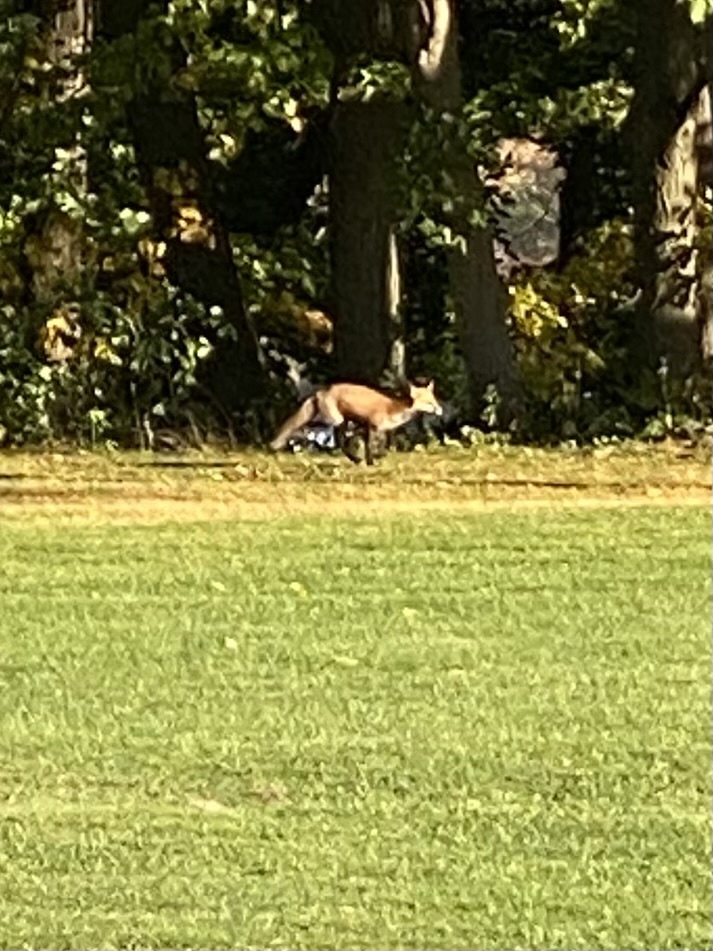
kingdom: Animalia
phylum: Chordata
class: Mammalia
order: Carnivora
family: Canidae
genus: Vulpes
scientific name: Vulpes vulpes
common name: Red fox
